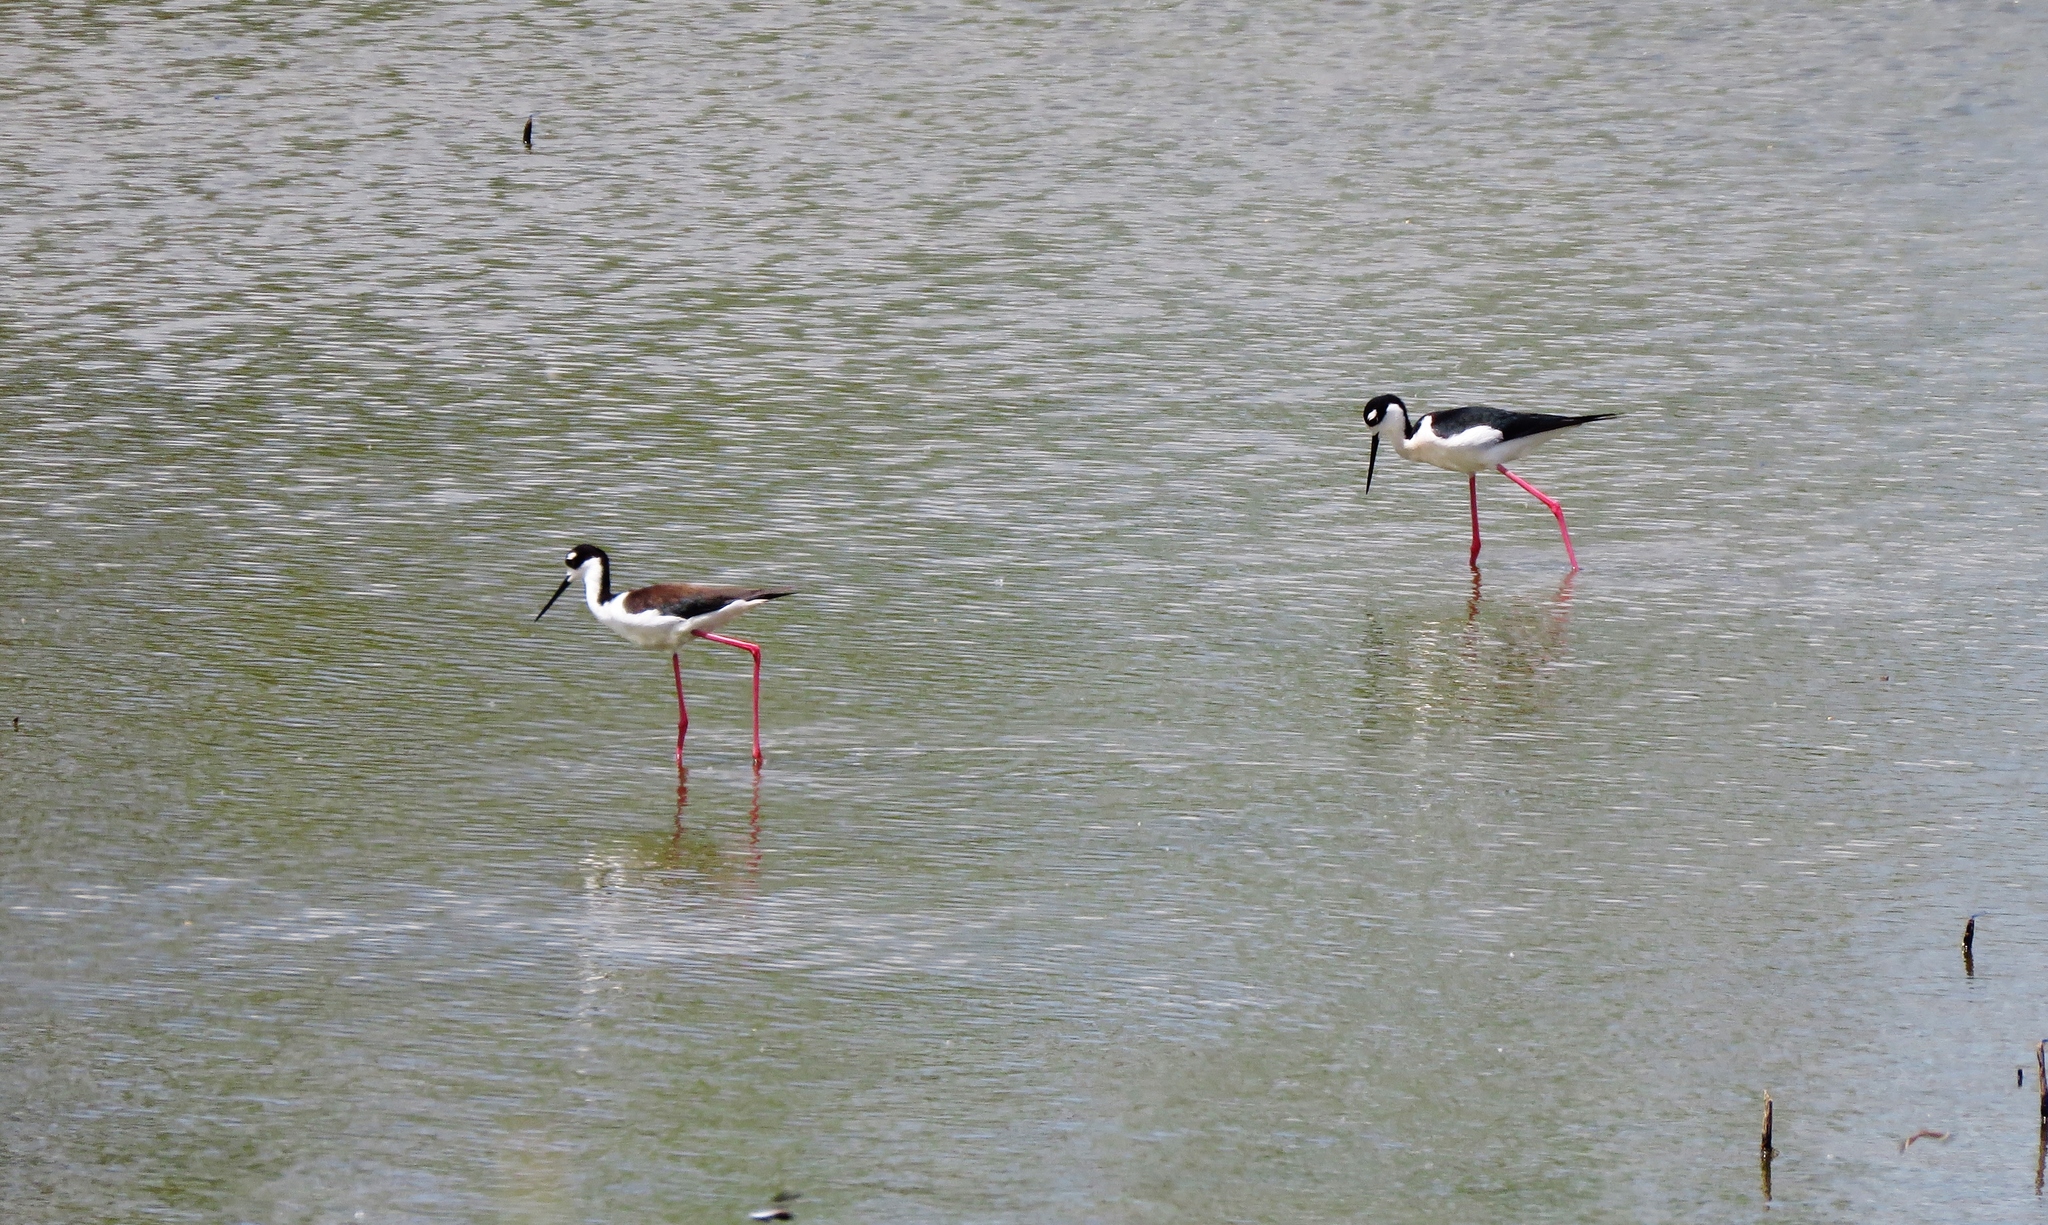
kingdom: Animalia
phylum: Chordata
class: Aves
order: Charadriiformes
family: Recurvirostridae
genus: Himantopus
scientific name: Himantopus mexicanus
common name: Black-necked stilt
